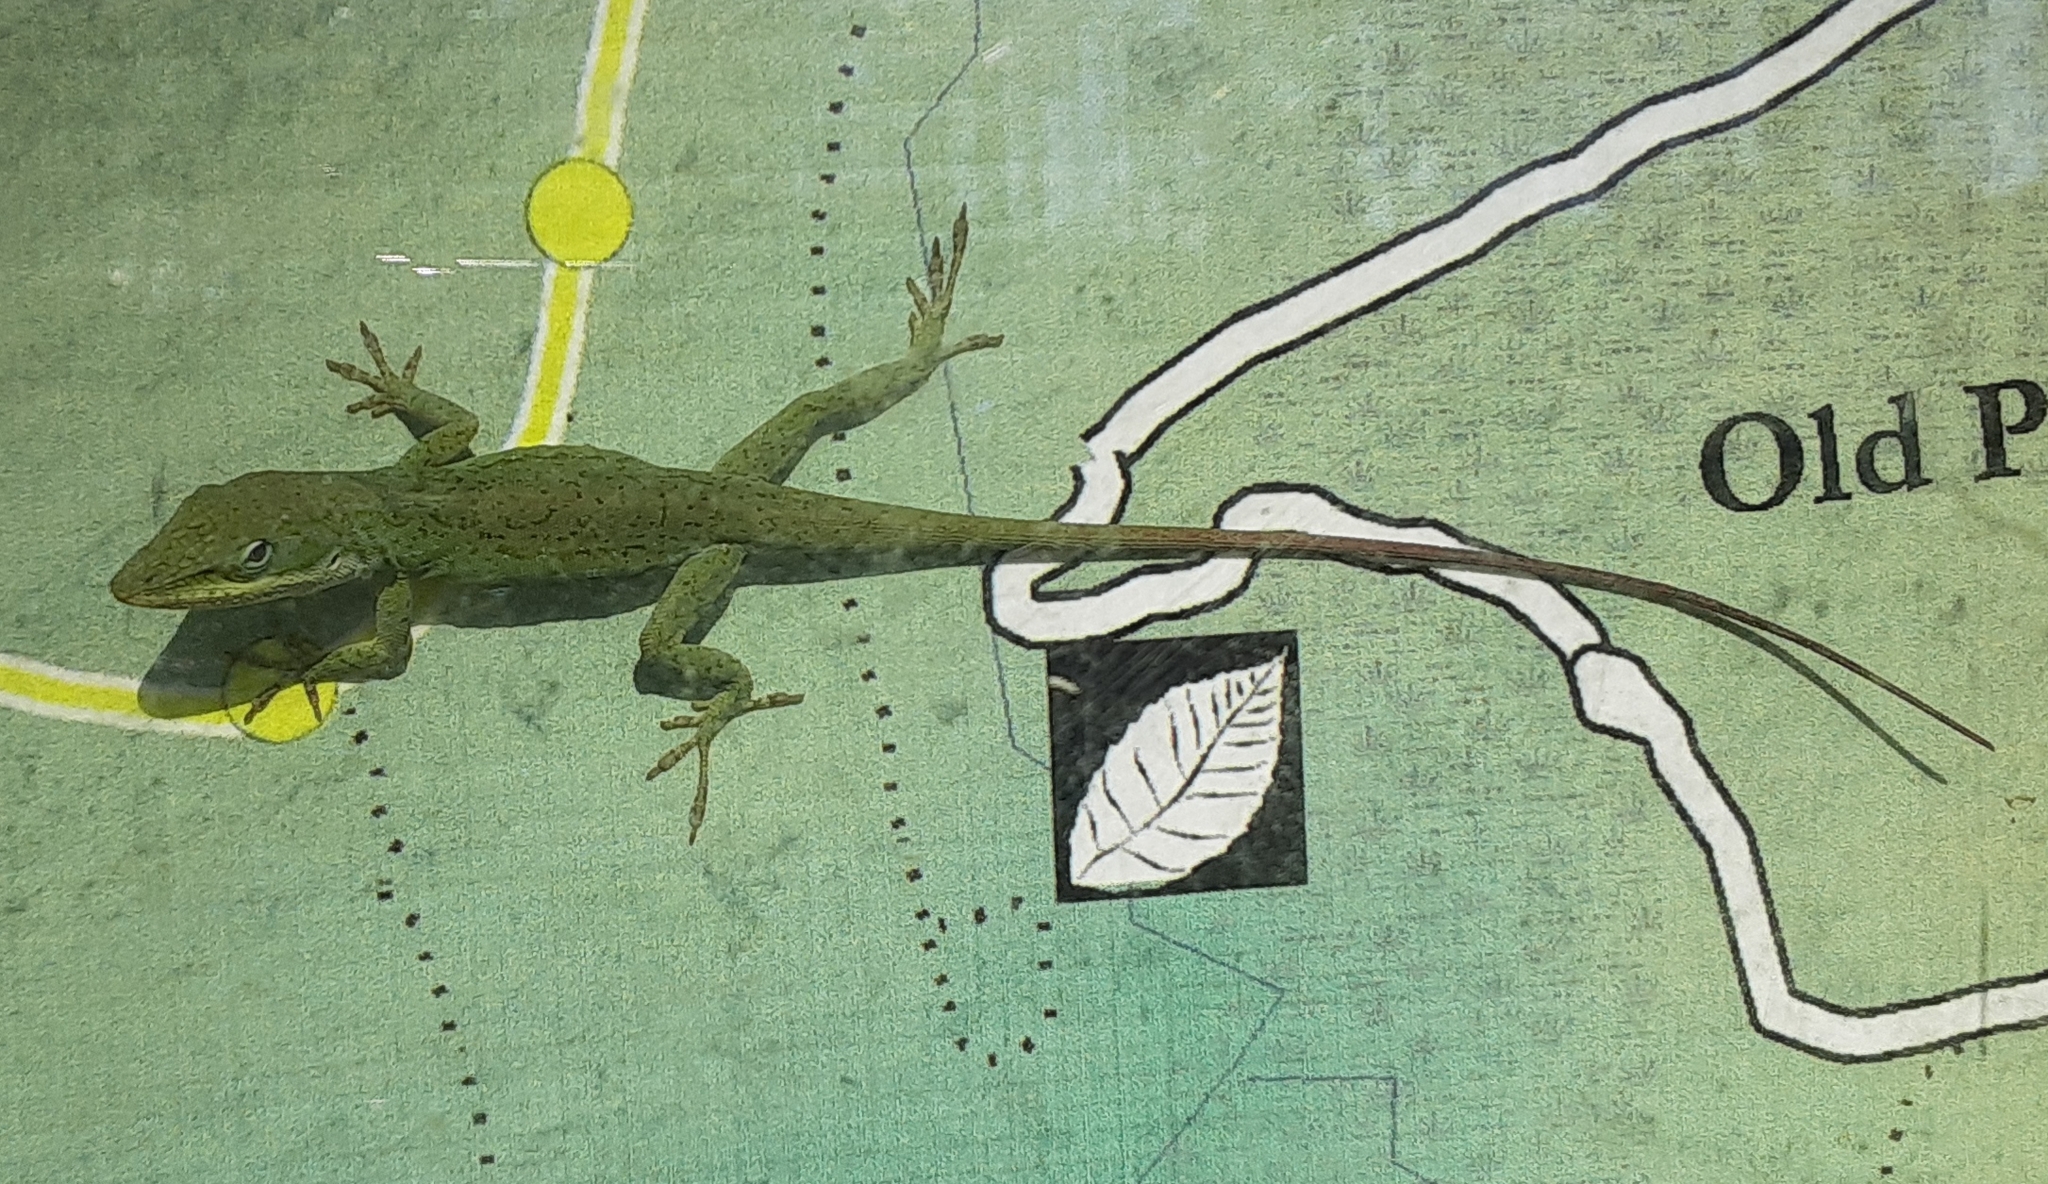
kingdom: Animalia
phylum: Chordata
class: Squamata
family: Dactyloidae
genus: Anolis
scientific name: Anolis carolinensis
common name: Green anole
